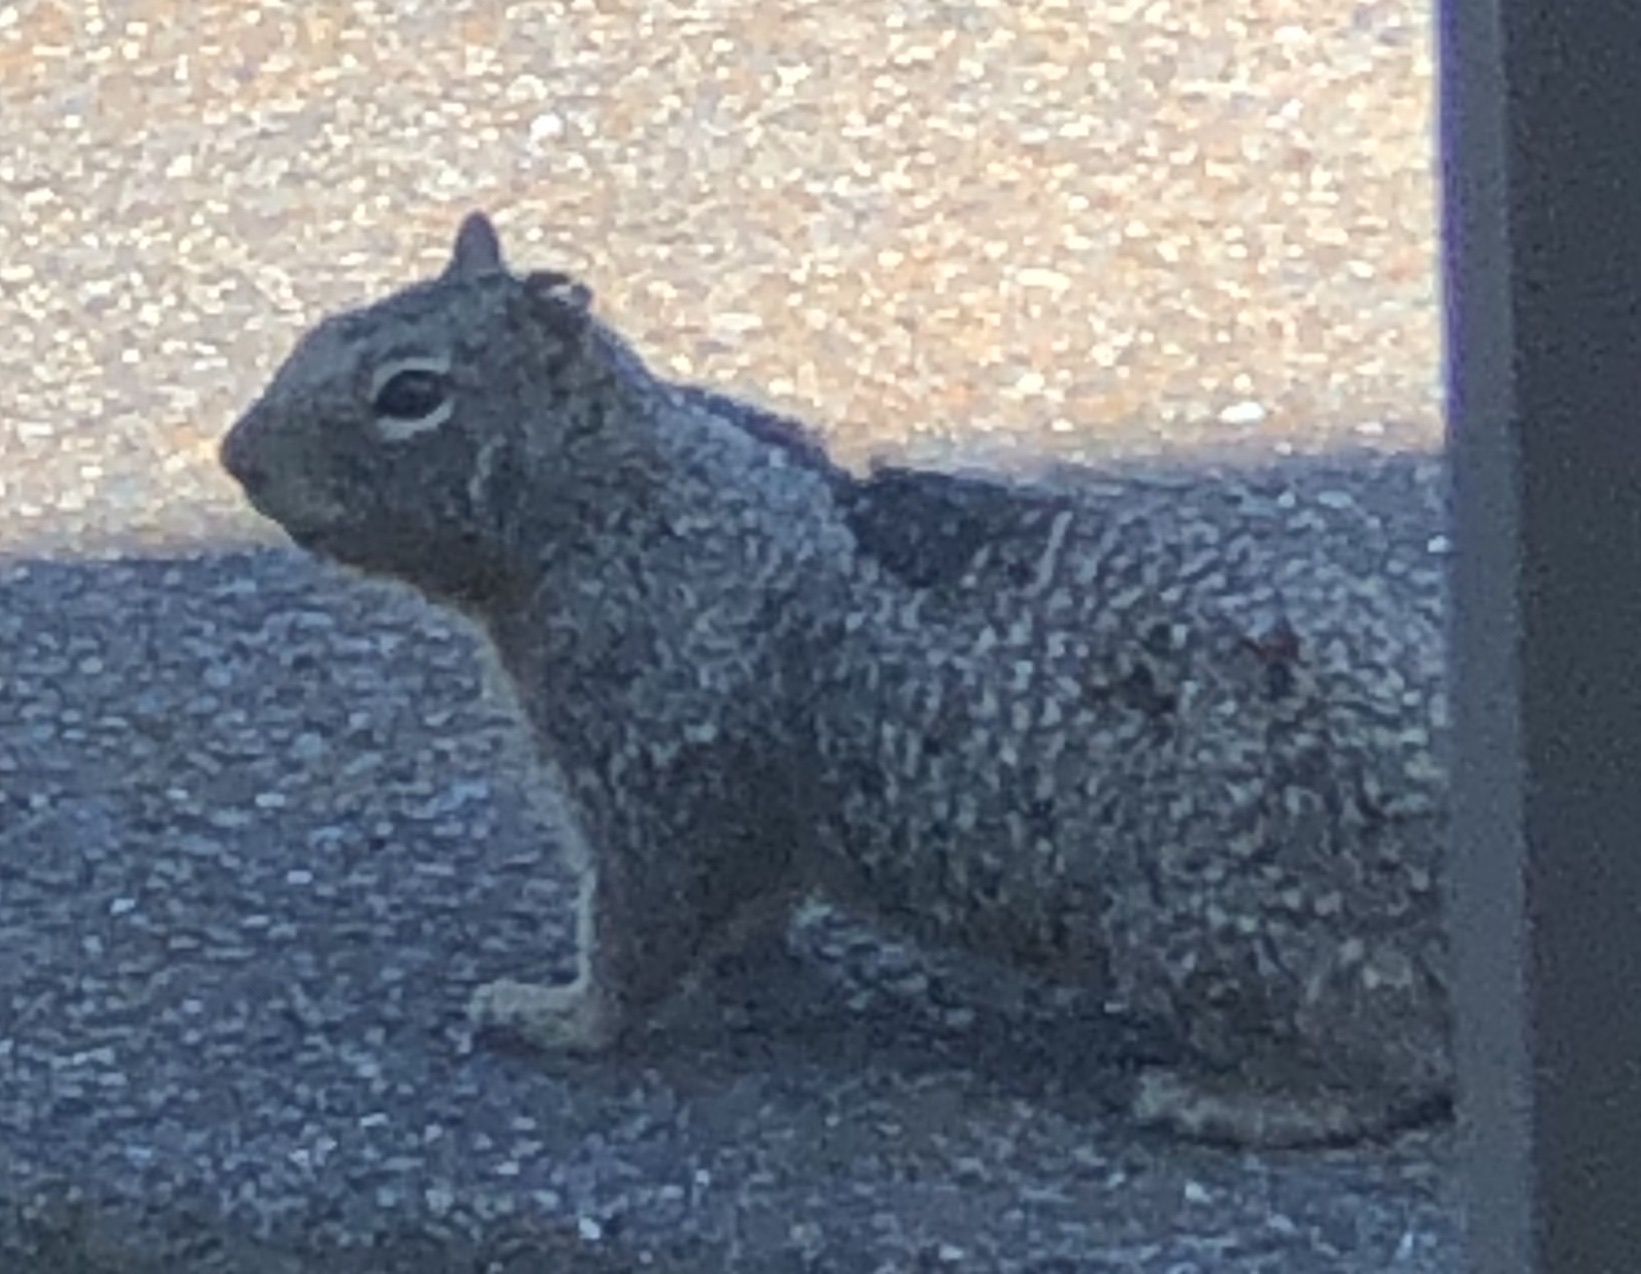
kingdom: Animalia
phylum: Chordata
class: Mammalia
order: Rodentia
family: Sciuridae
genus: Otospermophilus
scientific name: Otospermophilus beecheyi
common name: California ground squirrel
